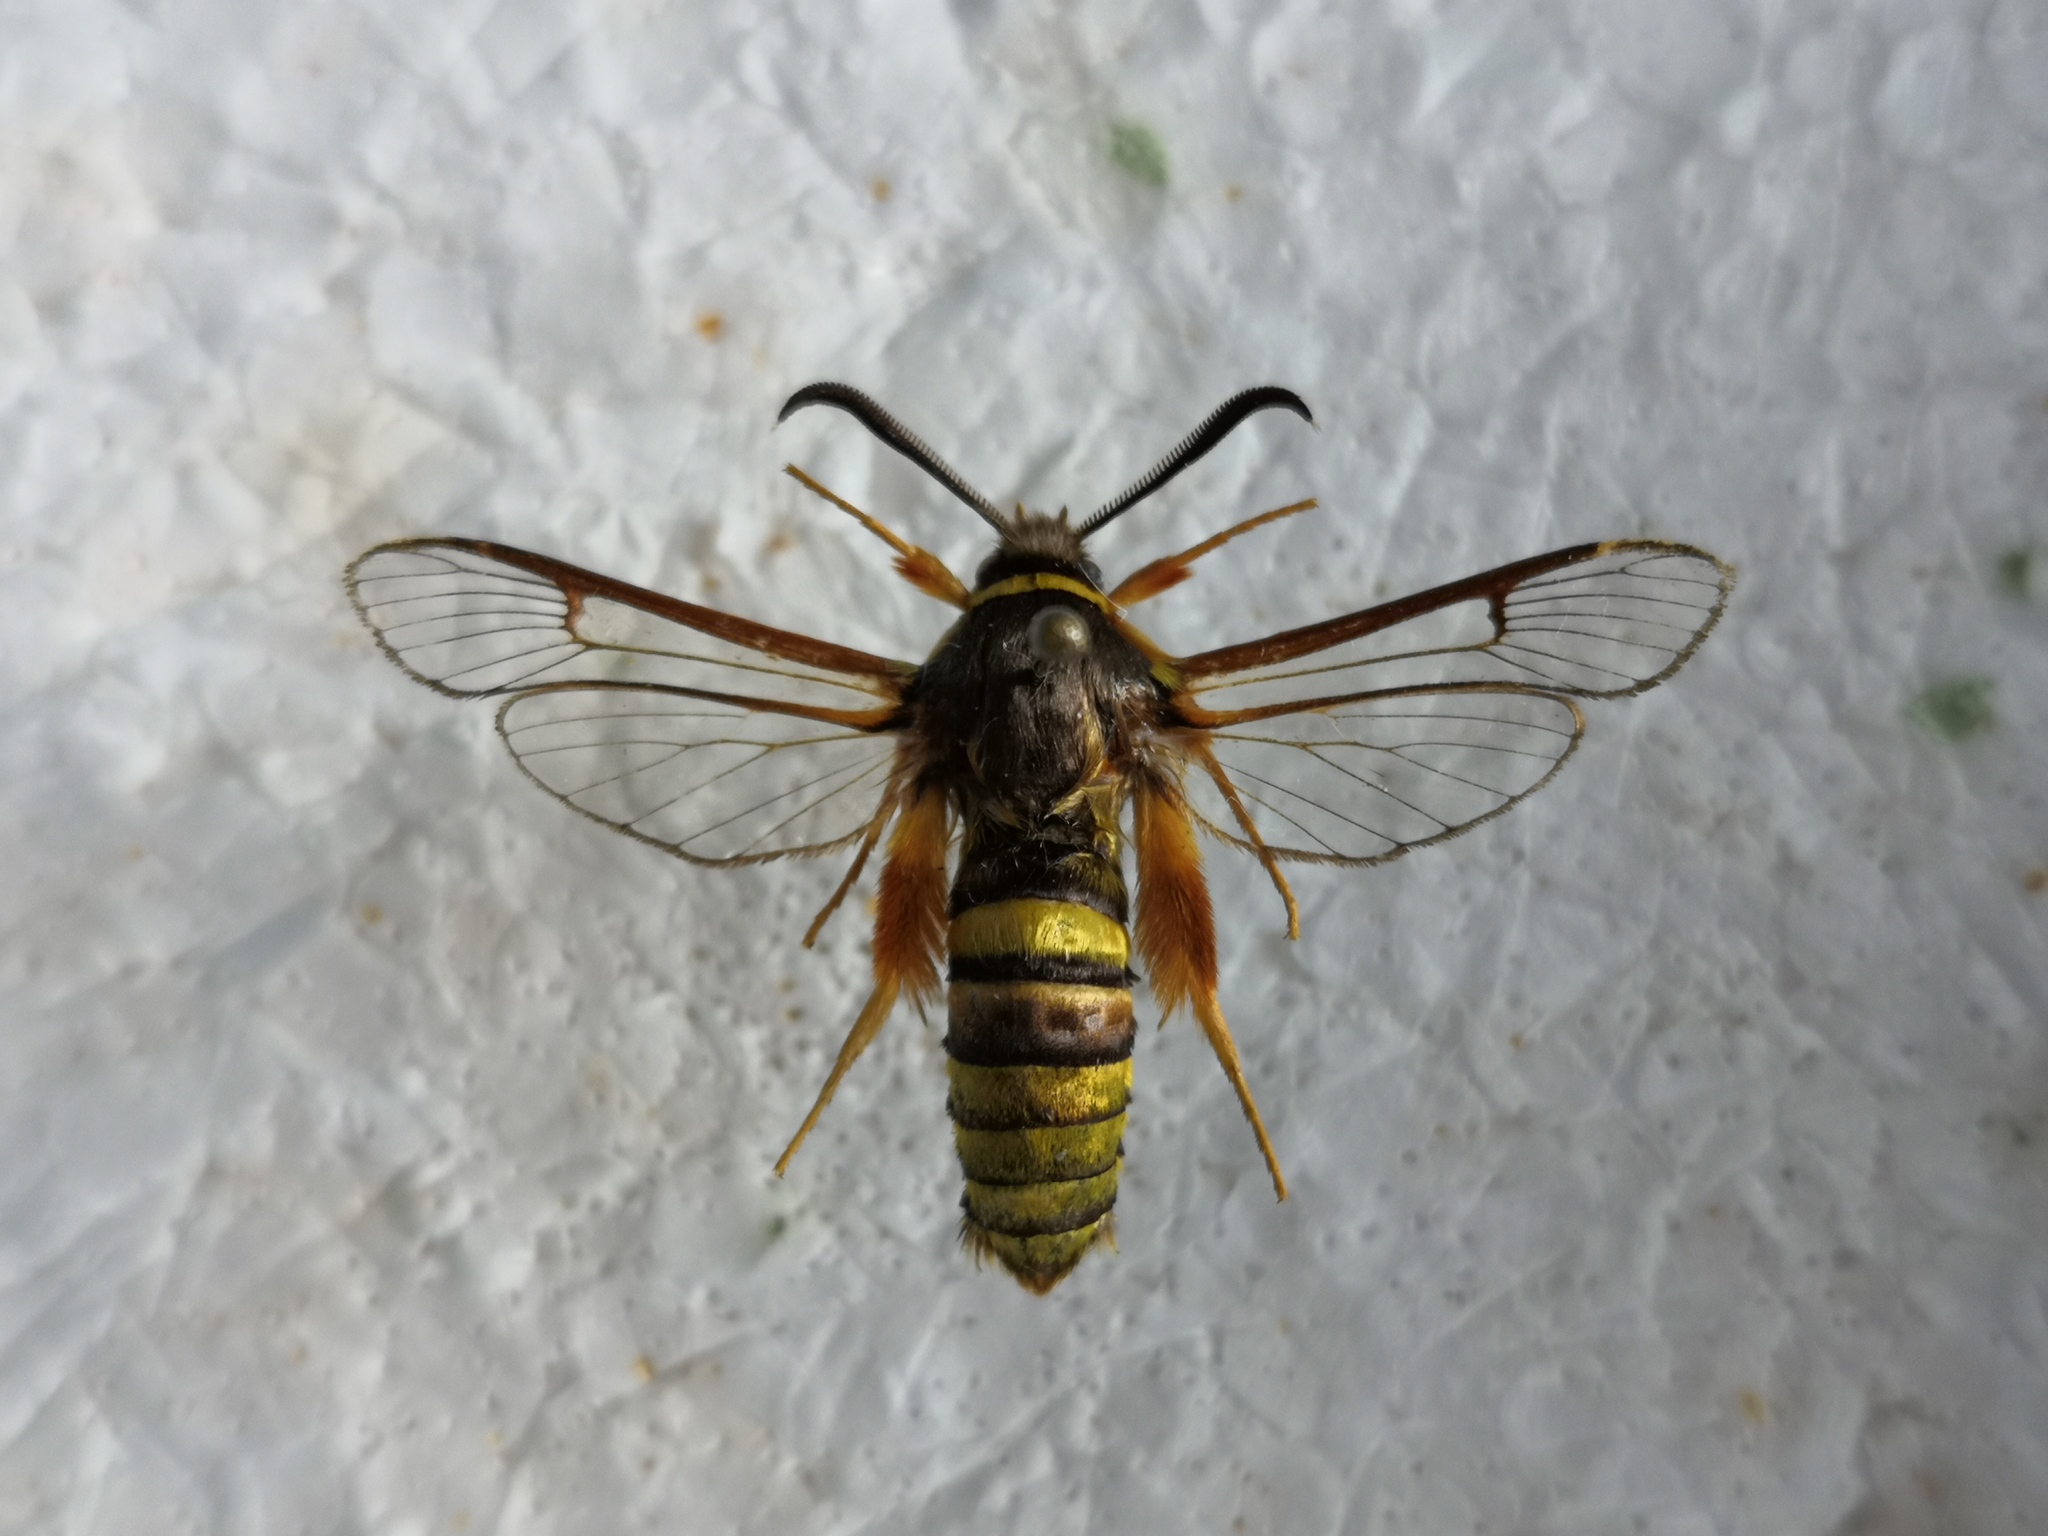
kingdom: Animalia
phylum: Arthropoda
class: Insecta
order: Lepidoptera
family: Sesiidae
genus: Sesia
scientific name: Sesia bembeciformis
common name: Lunar hornet moth
